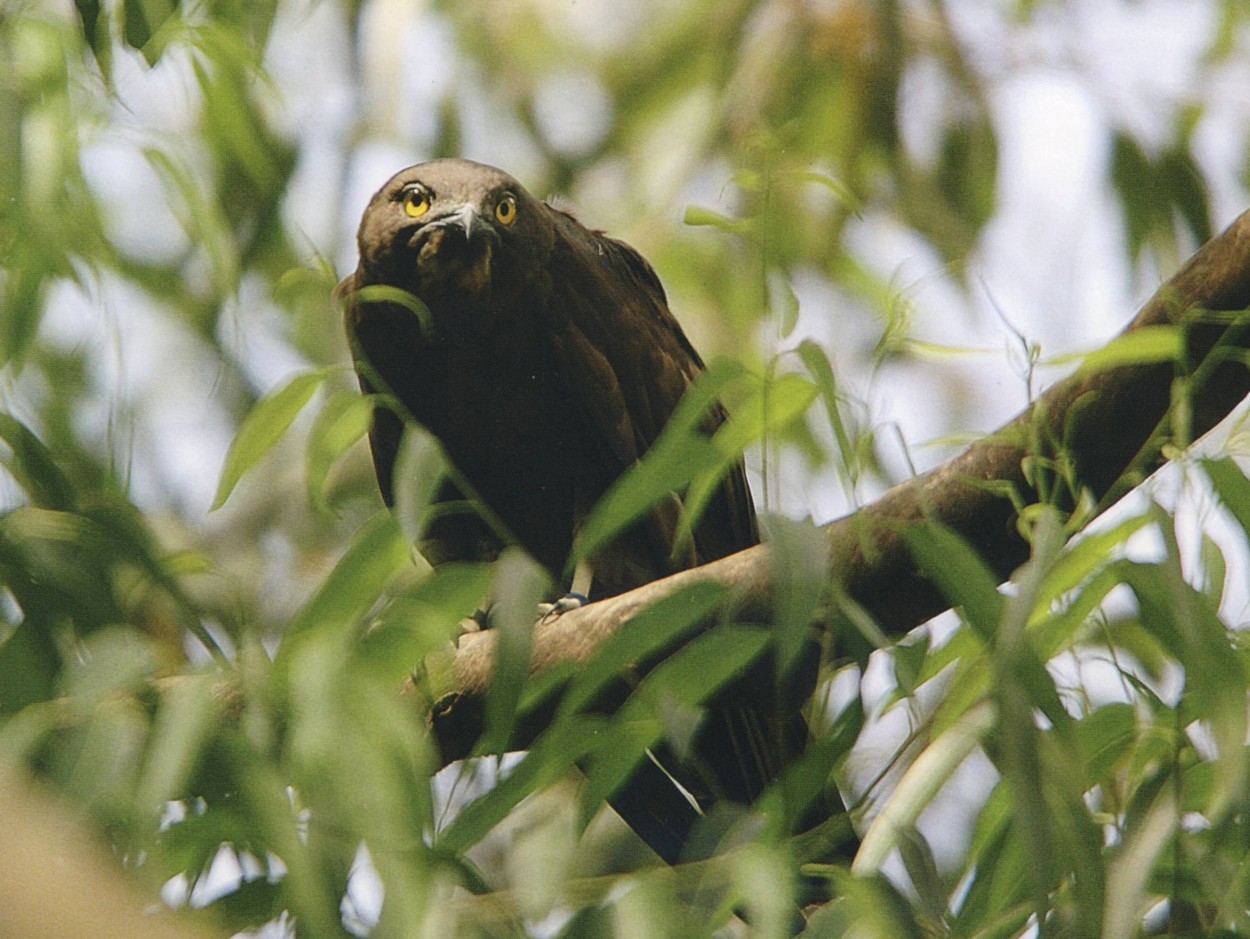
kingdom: Animalia
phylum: Chordata
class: Aves
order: Accipitriformes
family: Accipitridae
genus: Macheiramphus
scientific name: Macheiramphus alcinus
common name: Bat hawk
